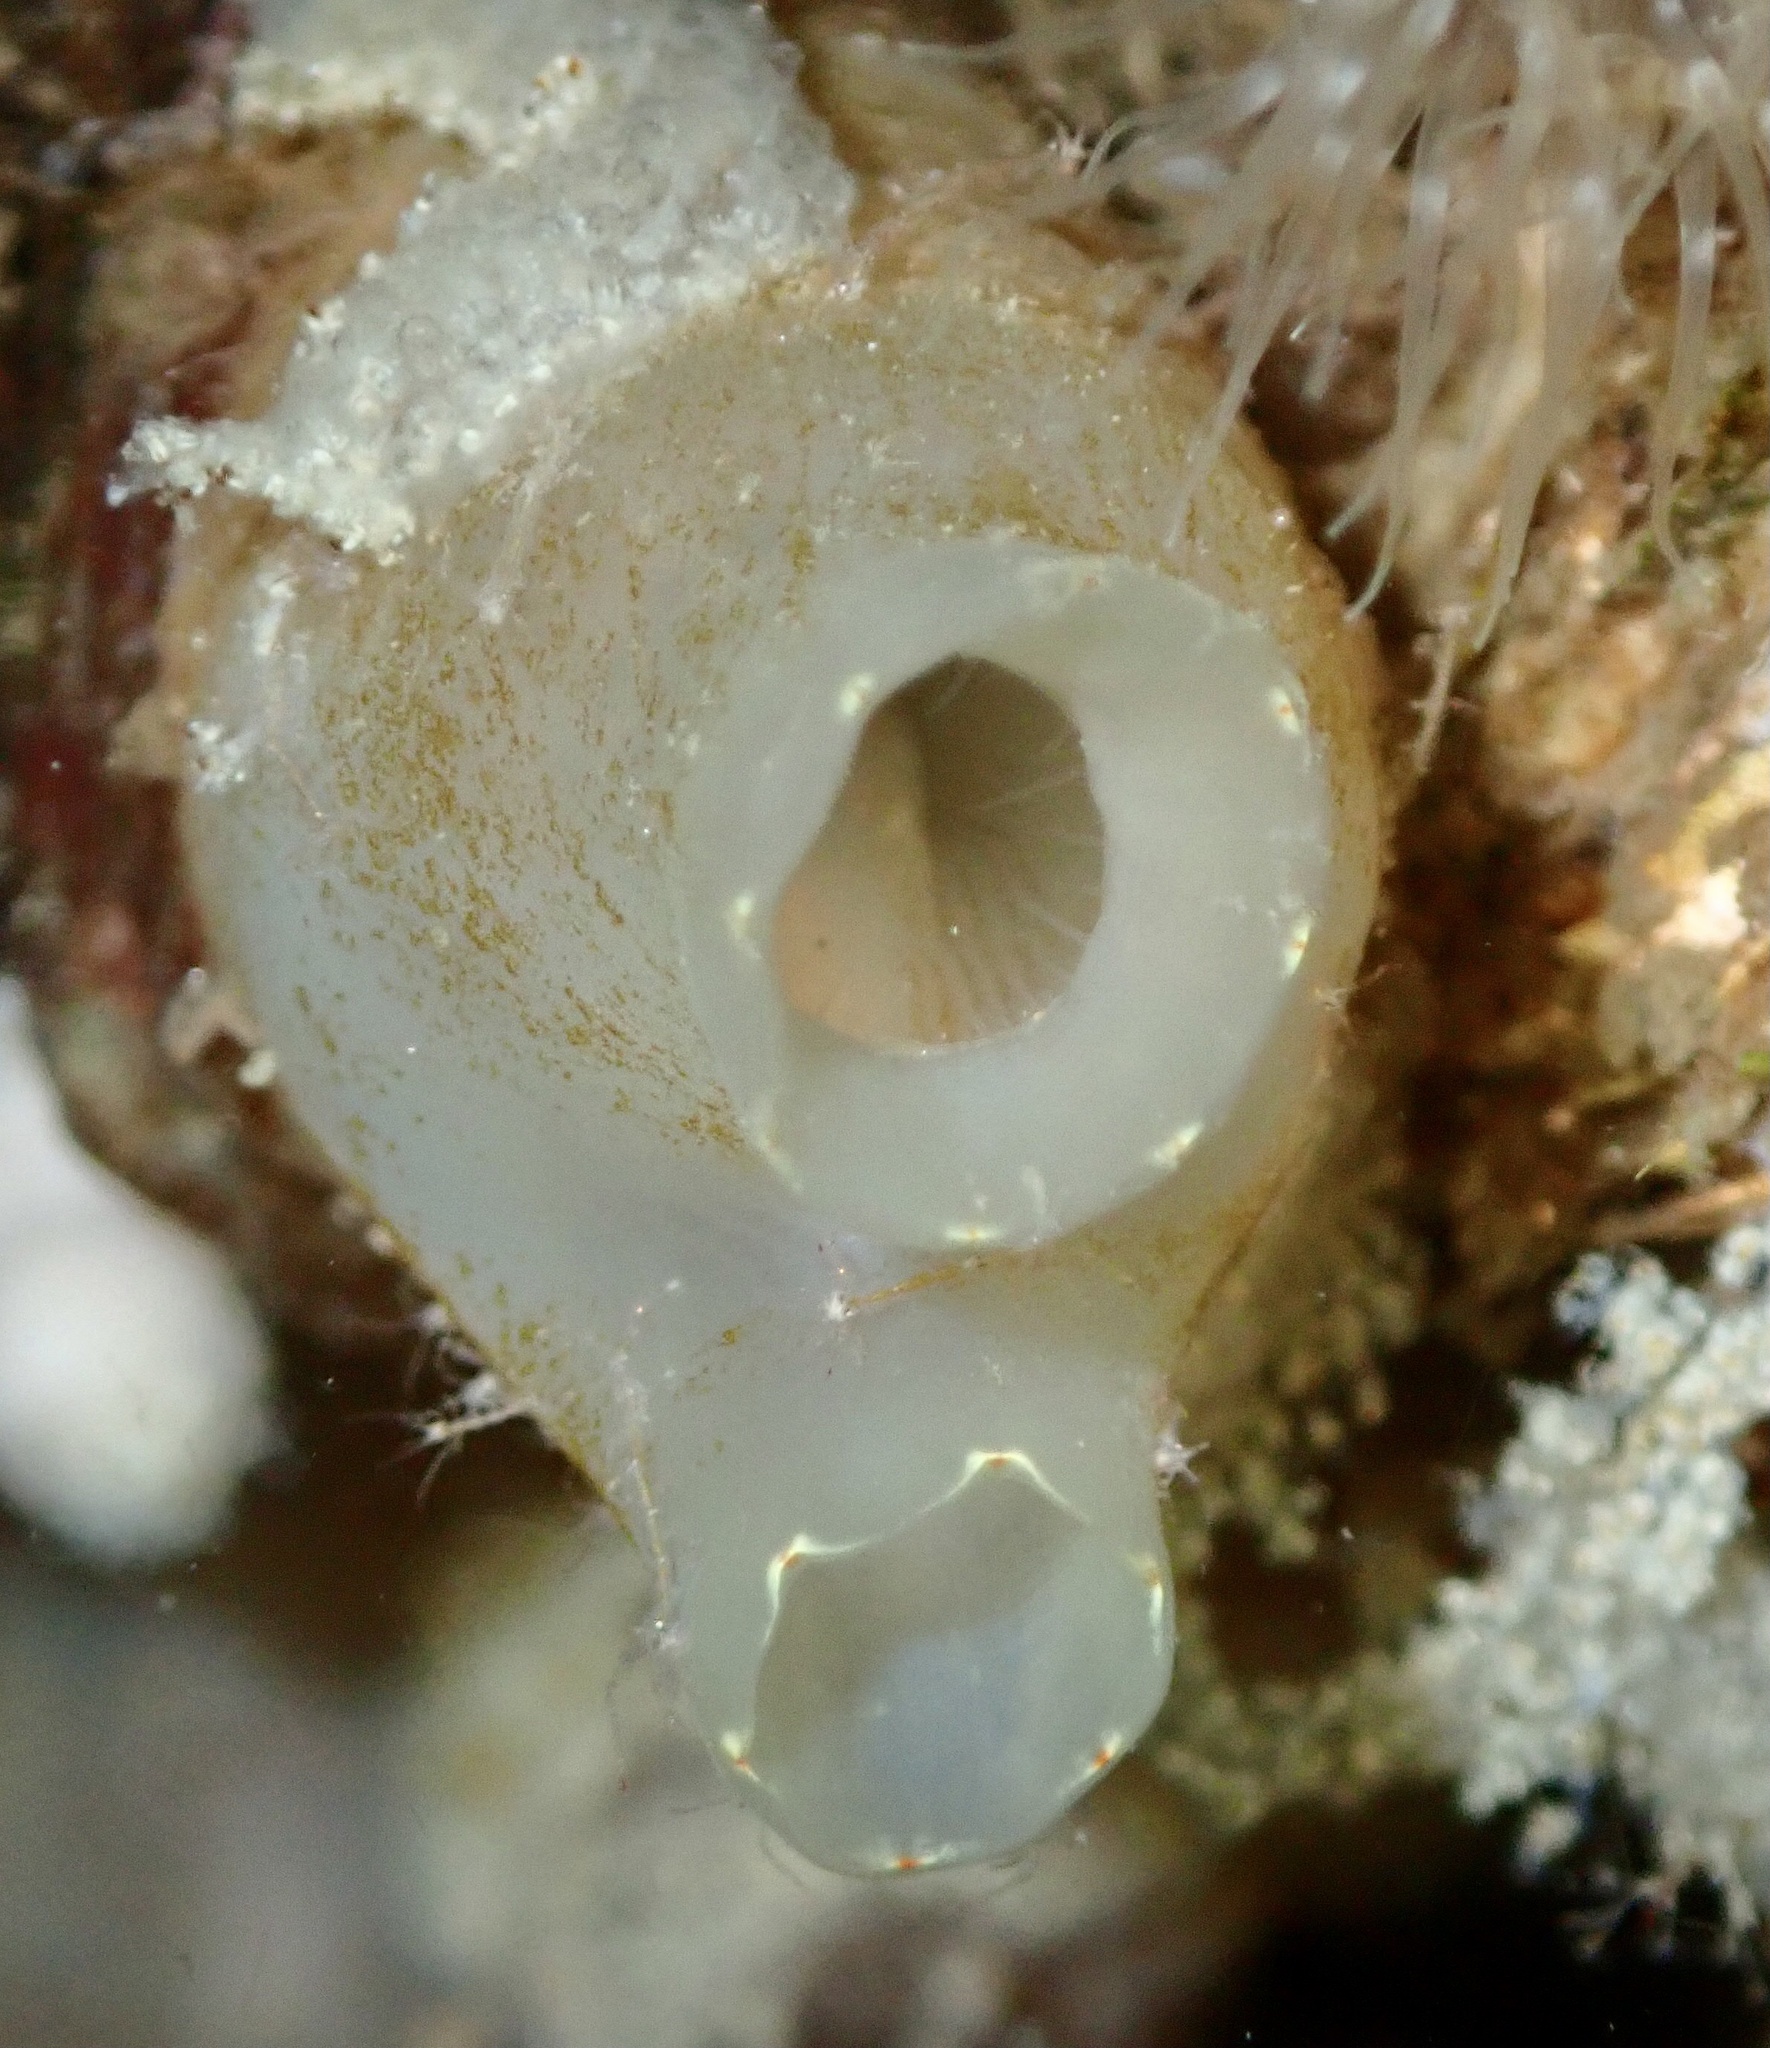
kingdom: Animalia
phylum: Chordata
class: Ascidiacea
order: Phlebobranchia
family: Cionidae
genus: Ciona
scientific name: Ciona intestinalis
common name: Vase tunicate
